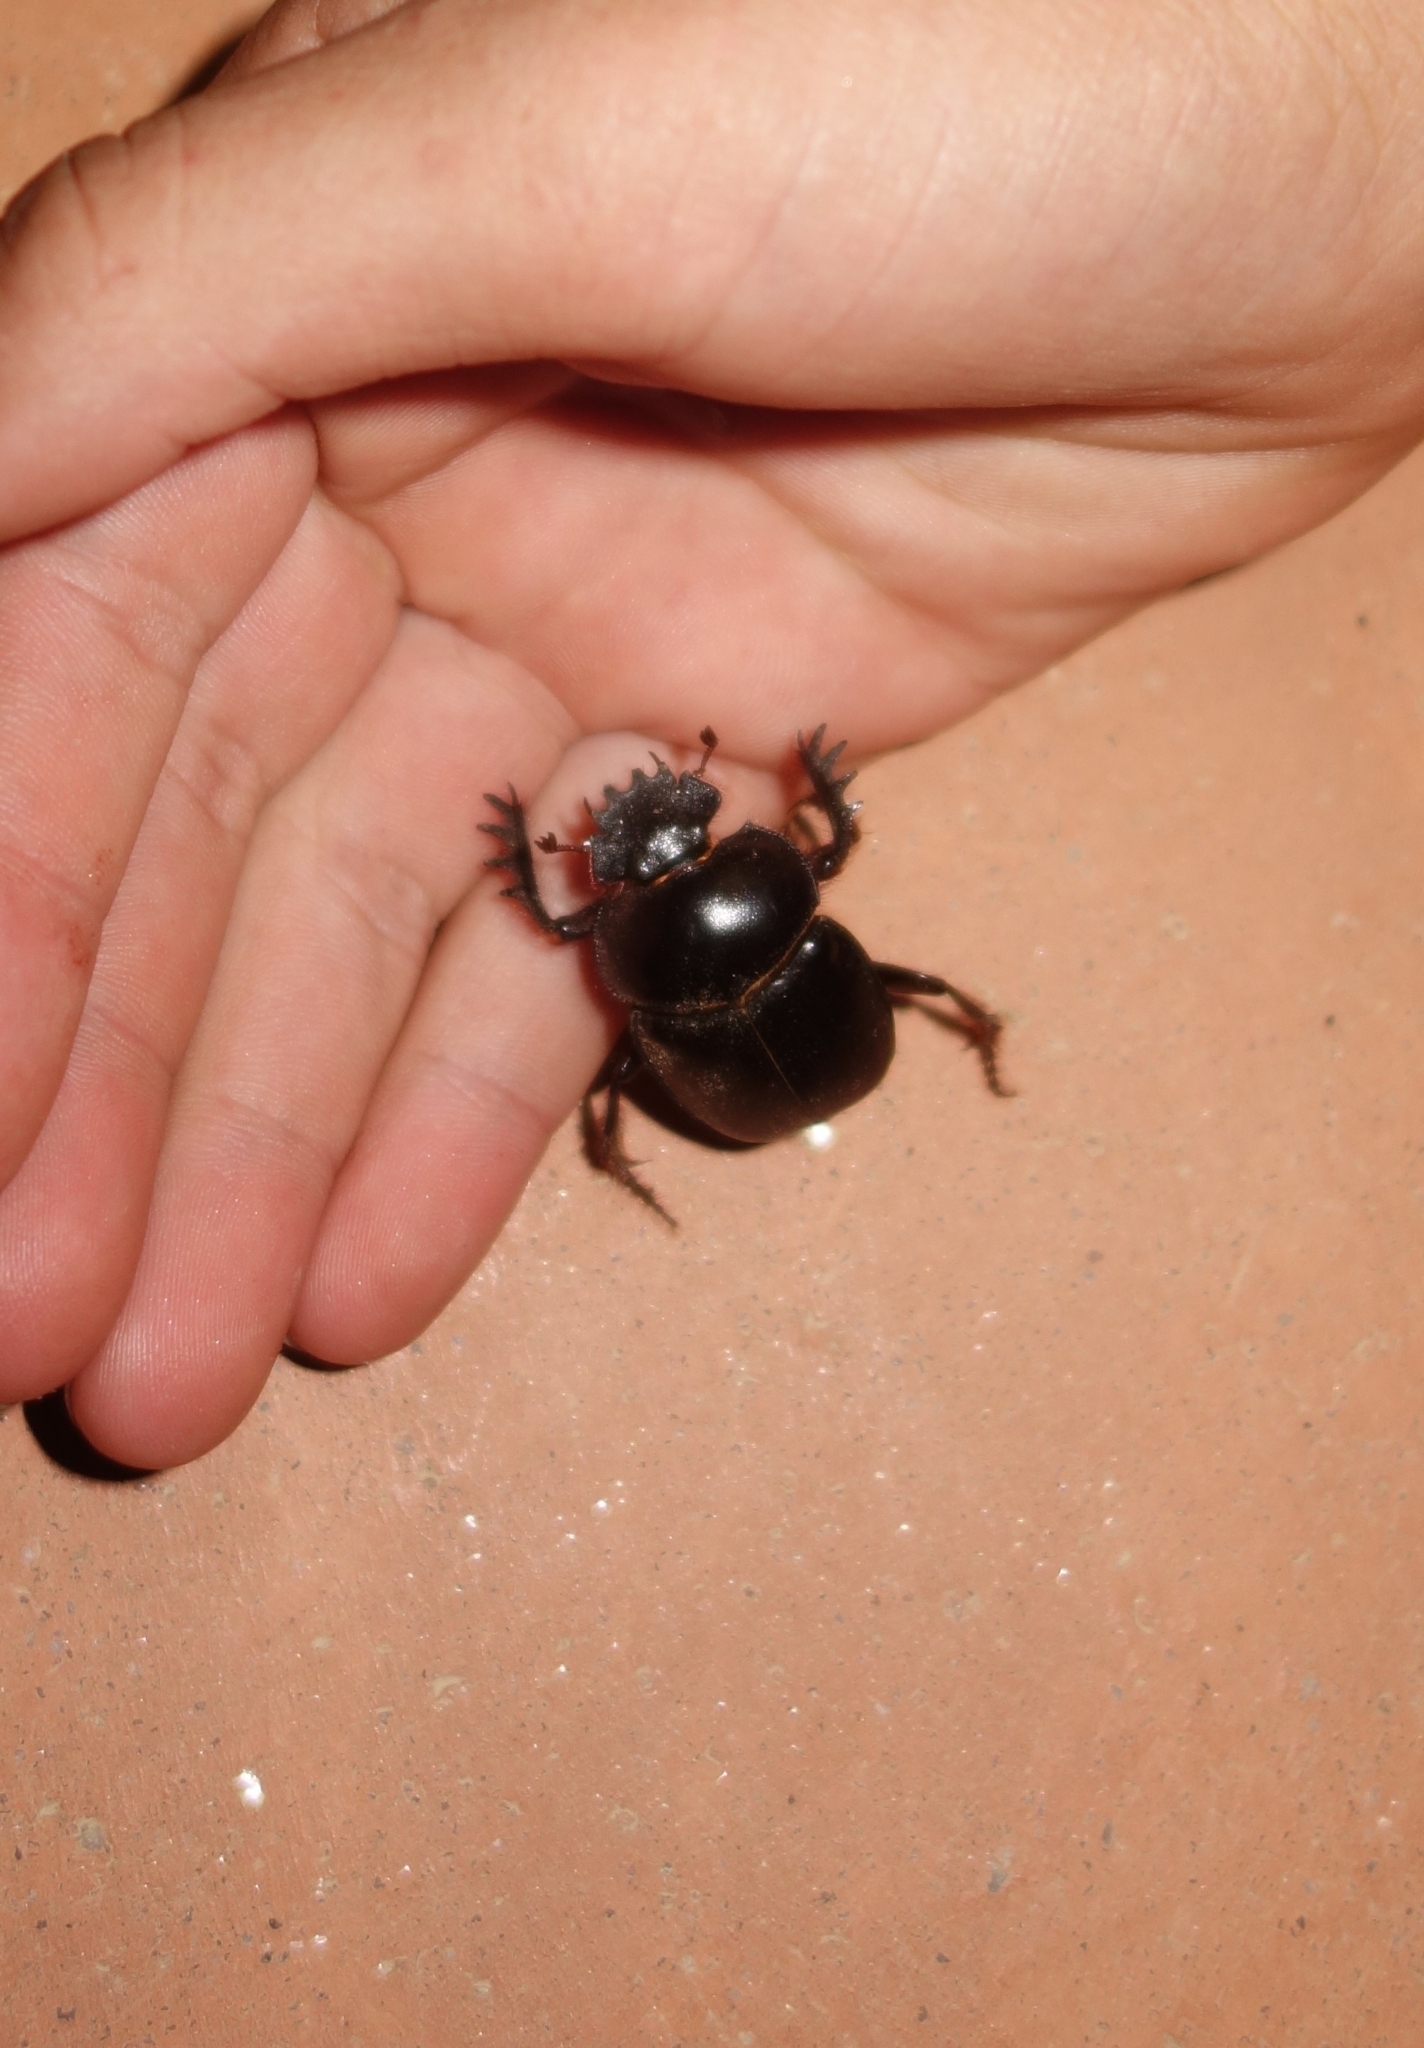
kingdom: Animalia
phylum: Arthropoda
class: Insecta
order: Coleoptera
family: Scarabaeidae
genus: Escarabaeus
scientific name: Escarabaeus satyrus
